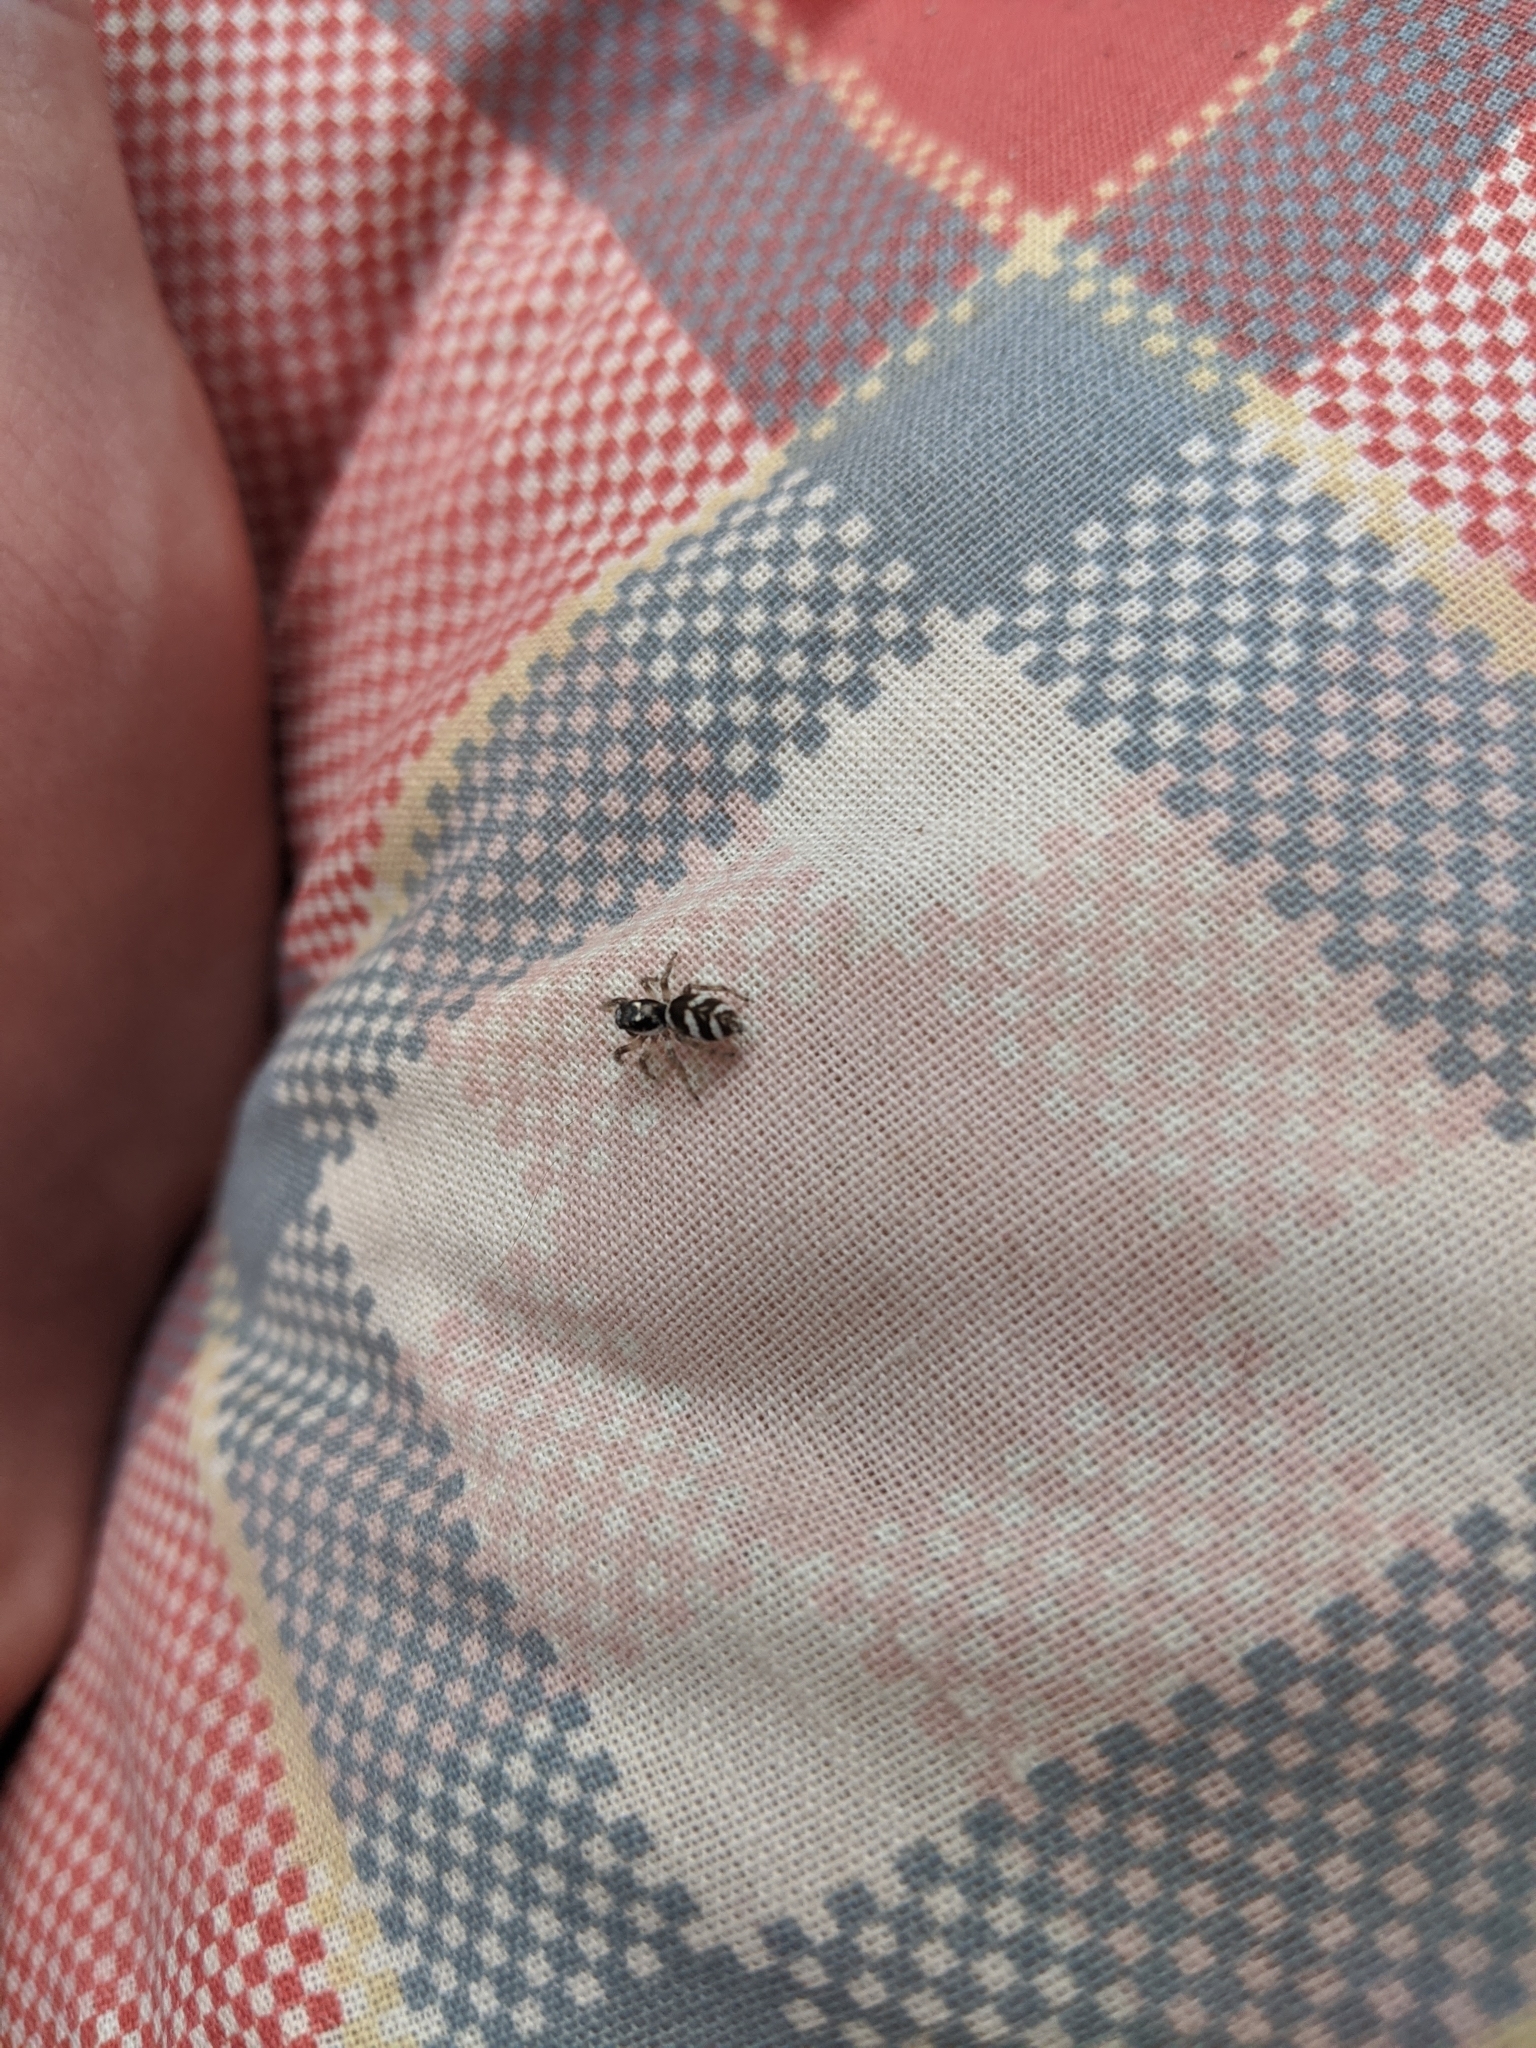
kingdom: Animalia
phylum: Arthropoda
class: Arachnida
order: Araneae
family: Salticidae
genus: Salticus
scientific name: Salticus scenicus
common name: Zebra jumper
